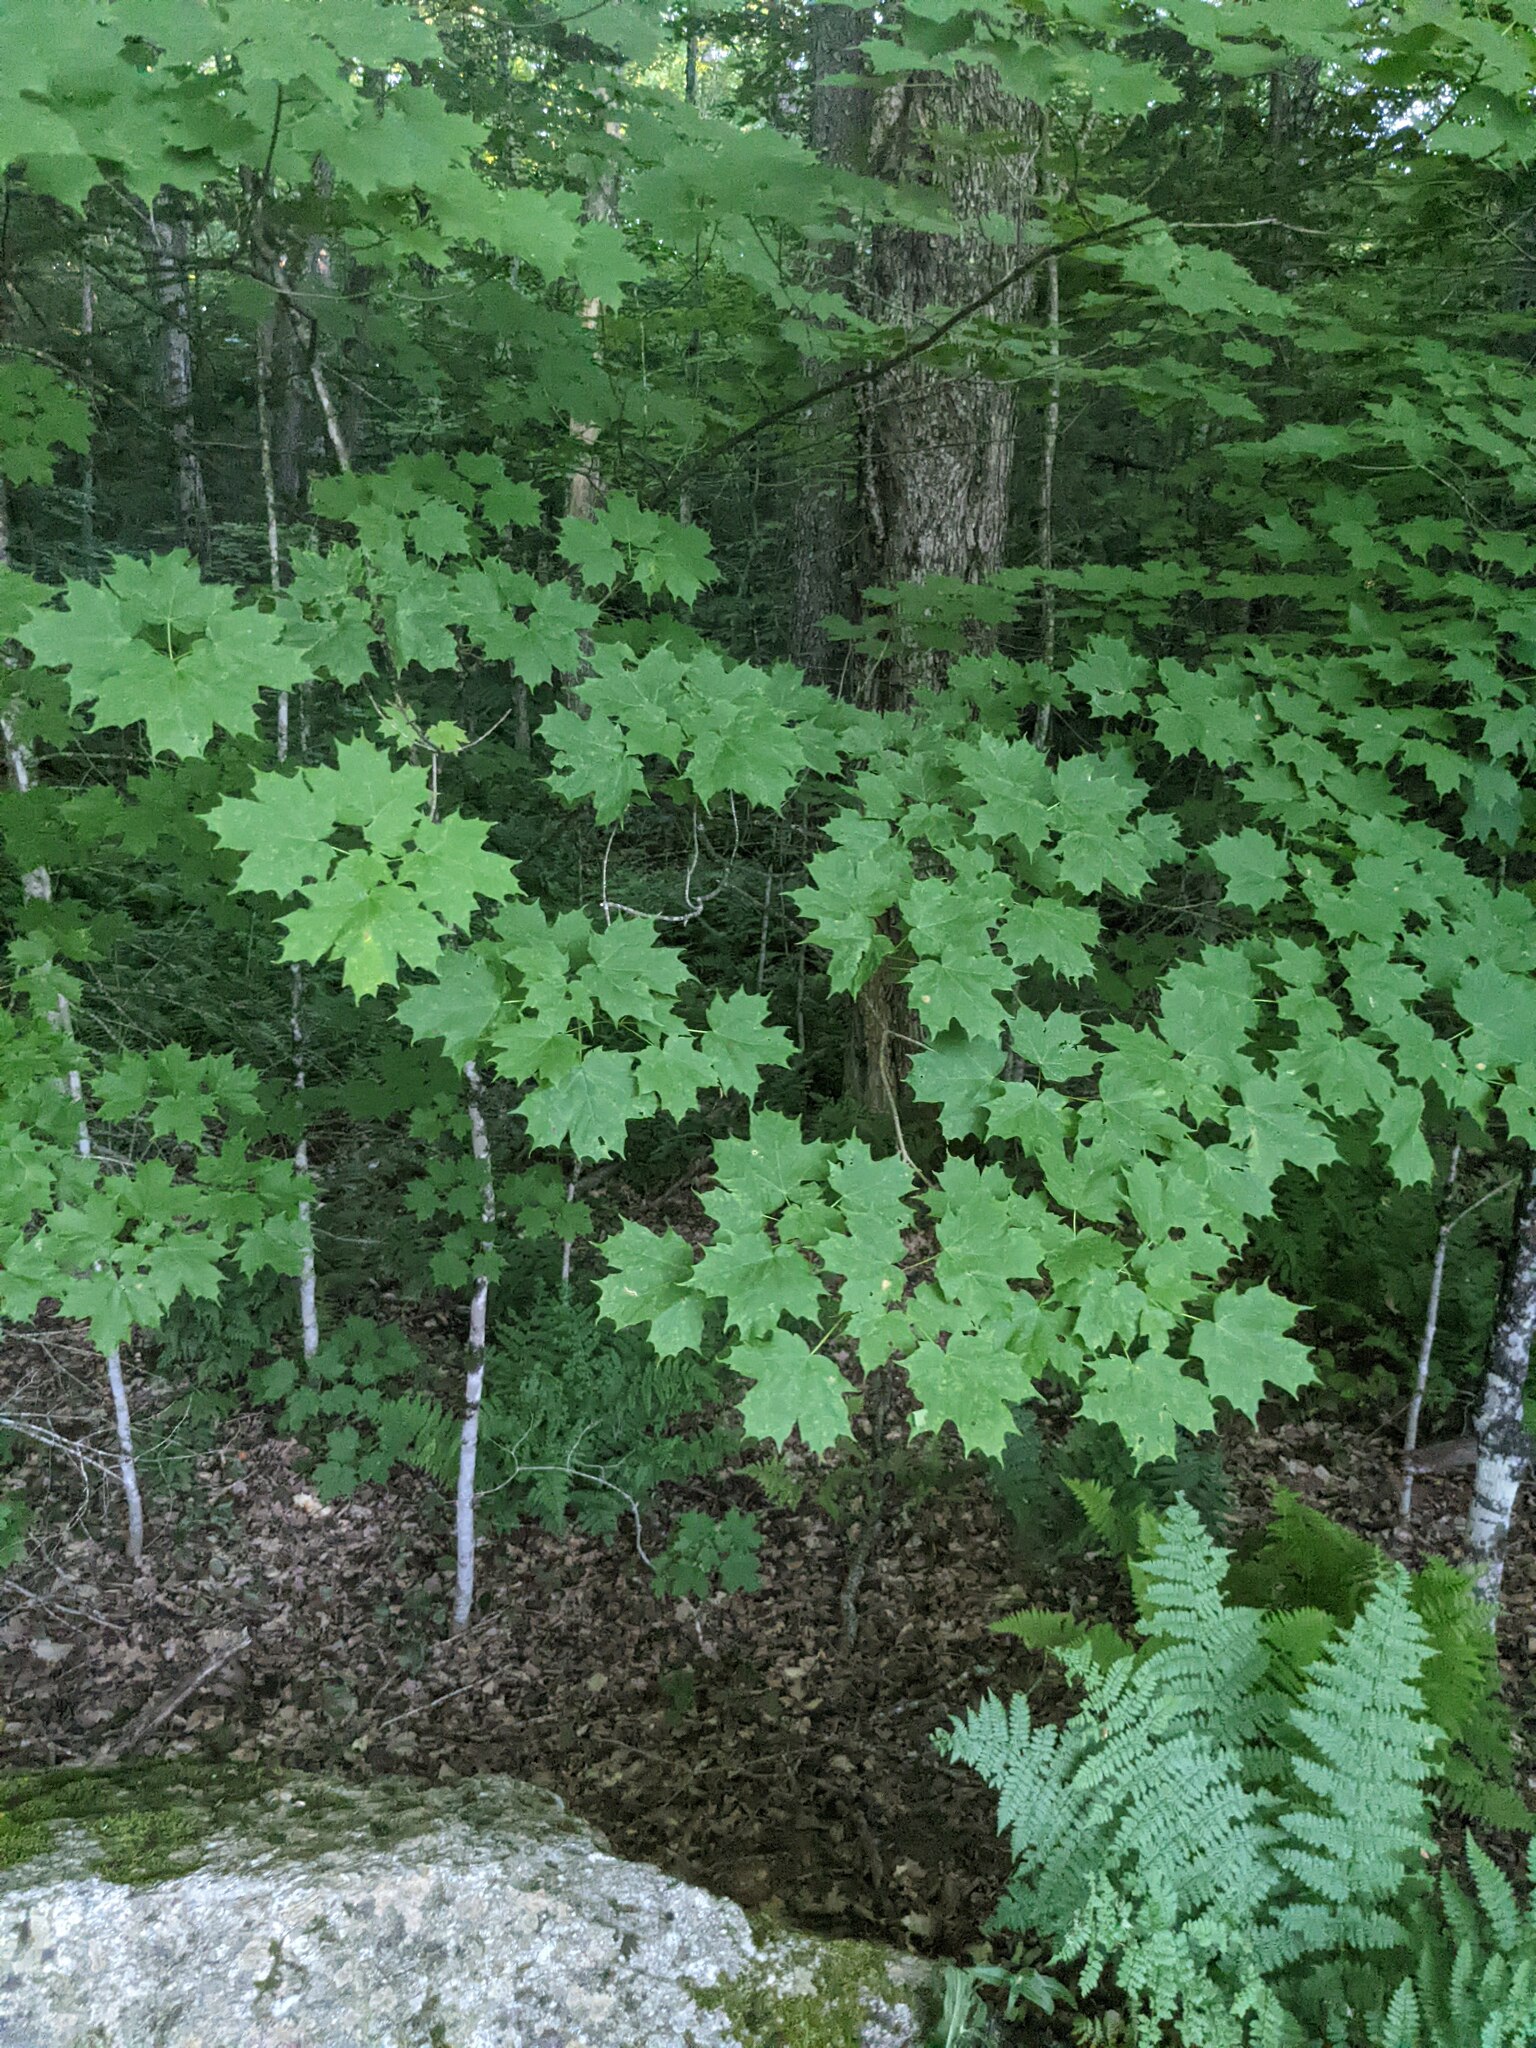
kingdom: Plantae
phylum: Tracheophyta
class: Magnoliopsida
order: Sapindales
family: Sapindaceae
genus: Acer
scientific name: Acer saccharum
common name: Sugar maple
